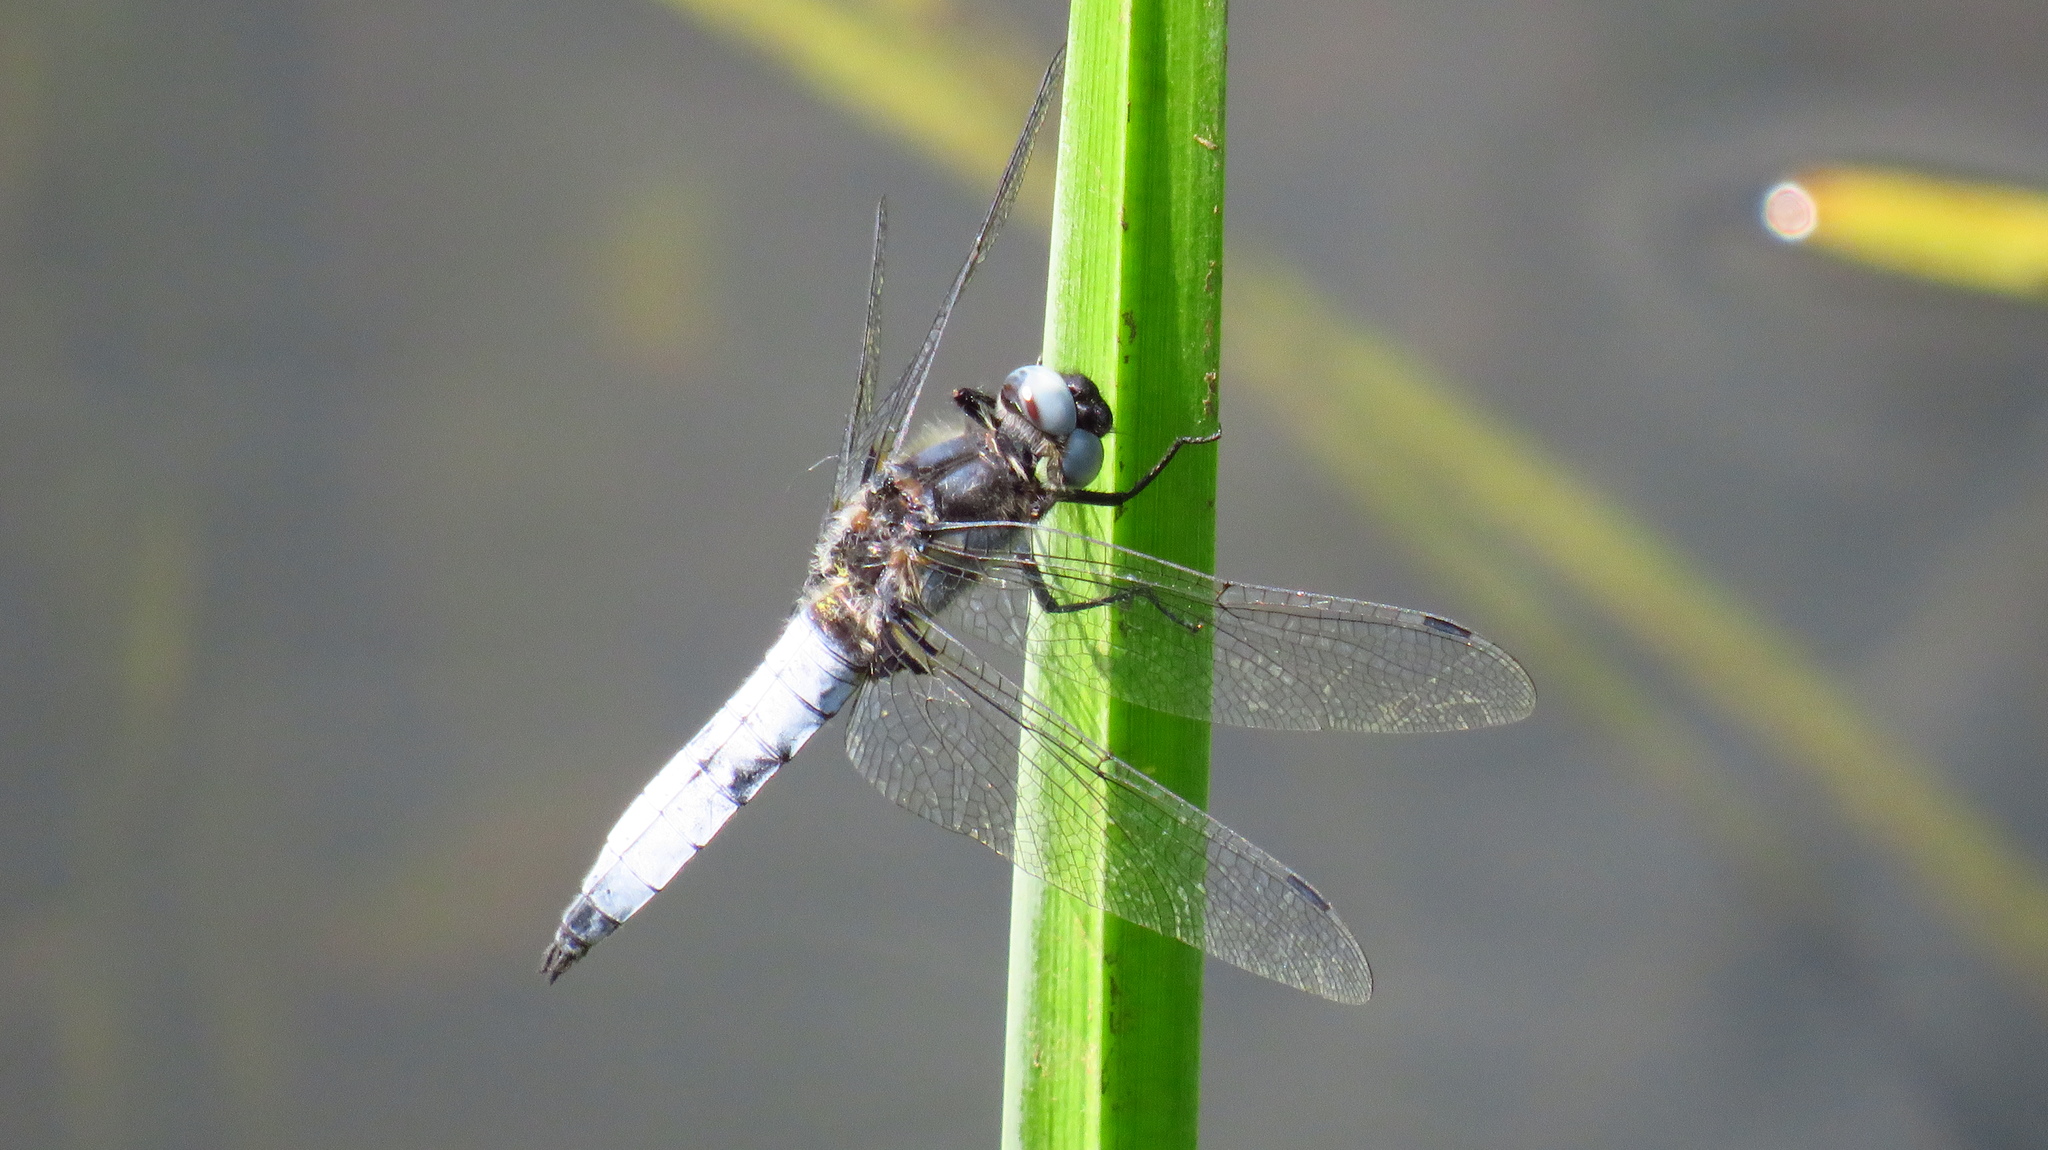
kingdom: Animalia
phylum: Arthropoda
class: Insecta
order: Odonata
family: Libellulidae
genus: Libellula
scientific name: Libellula fulva
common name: Blue chaser
